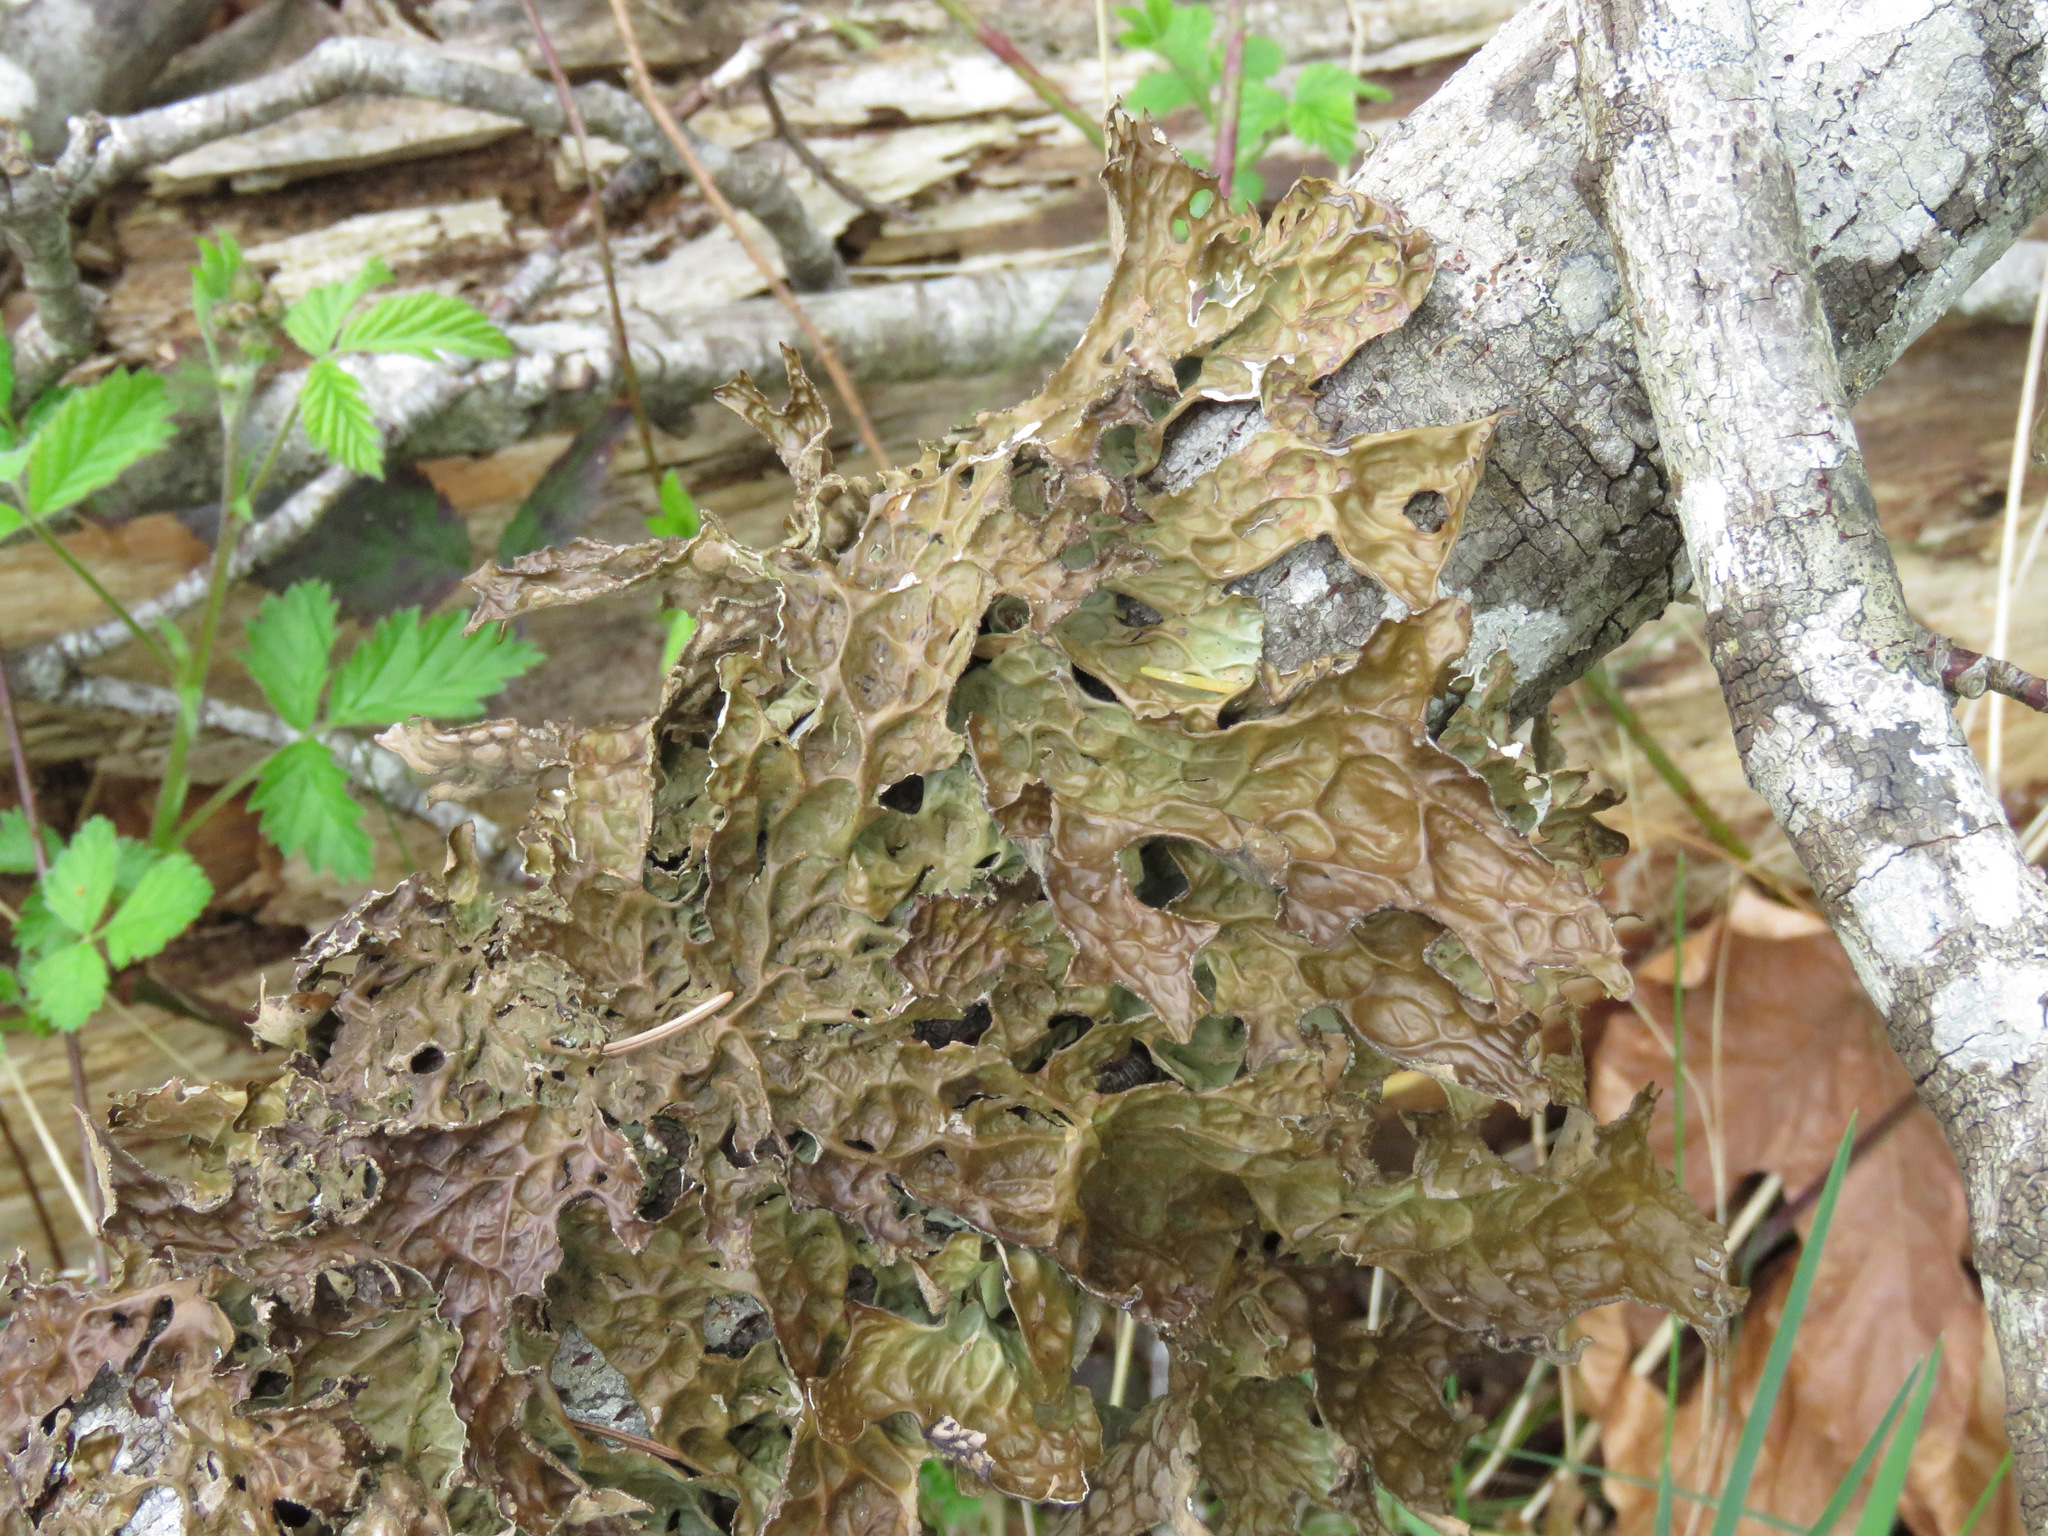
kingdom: Fungi
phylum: Ascomycota
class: Lecanoromycetes
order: Peltigerales
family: Lobariaceae
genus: Lobaria
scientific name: Lobaria pulmonaria
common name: Lungwort
